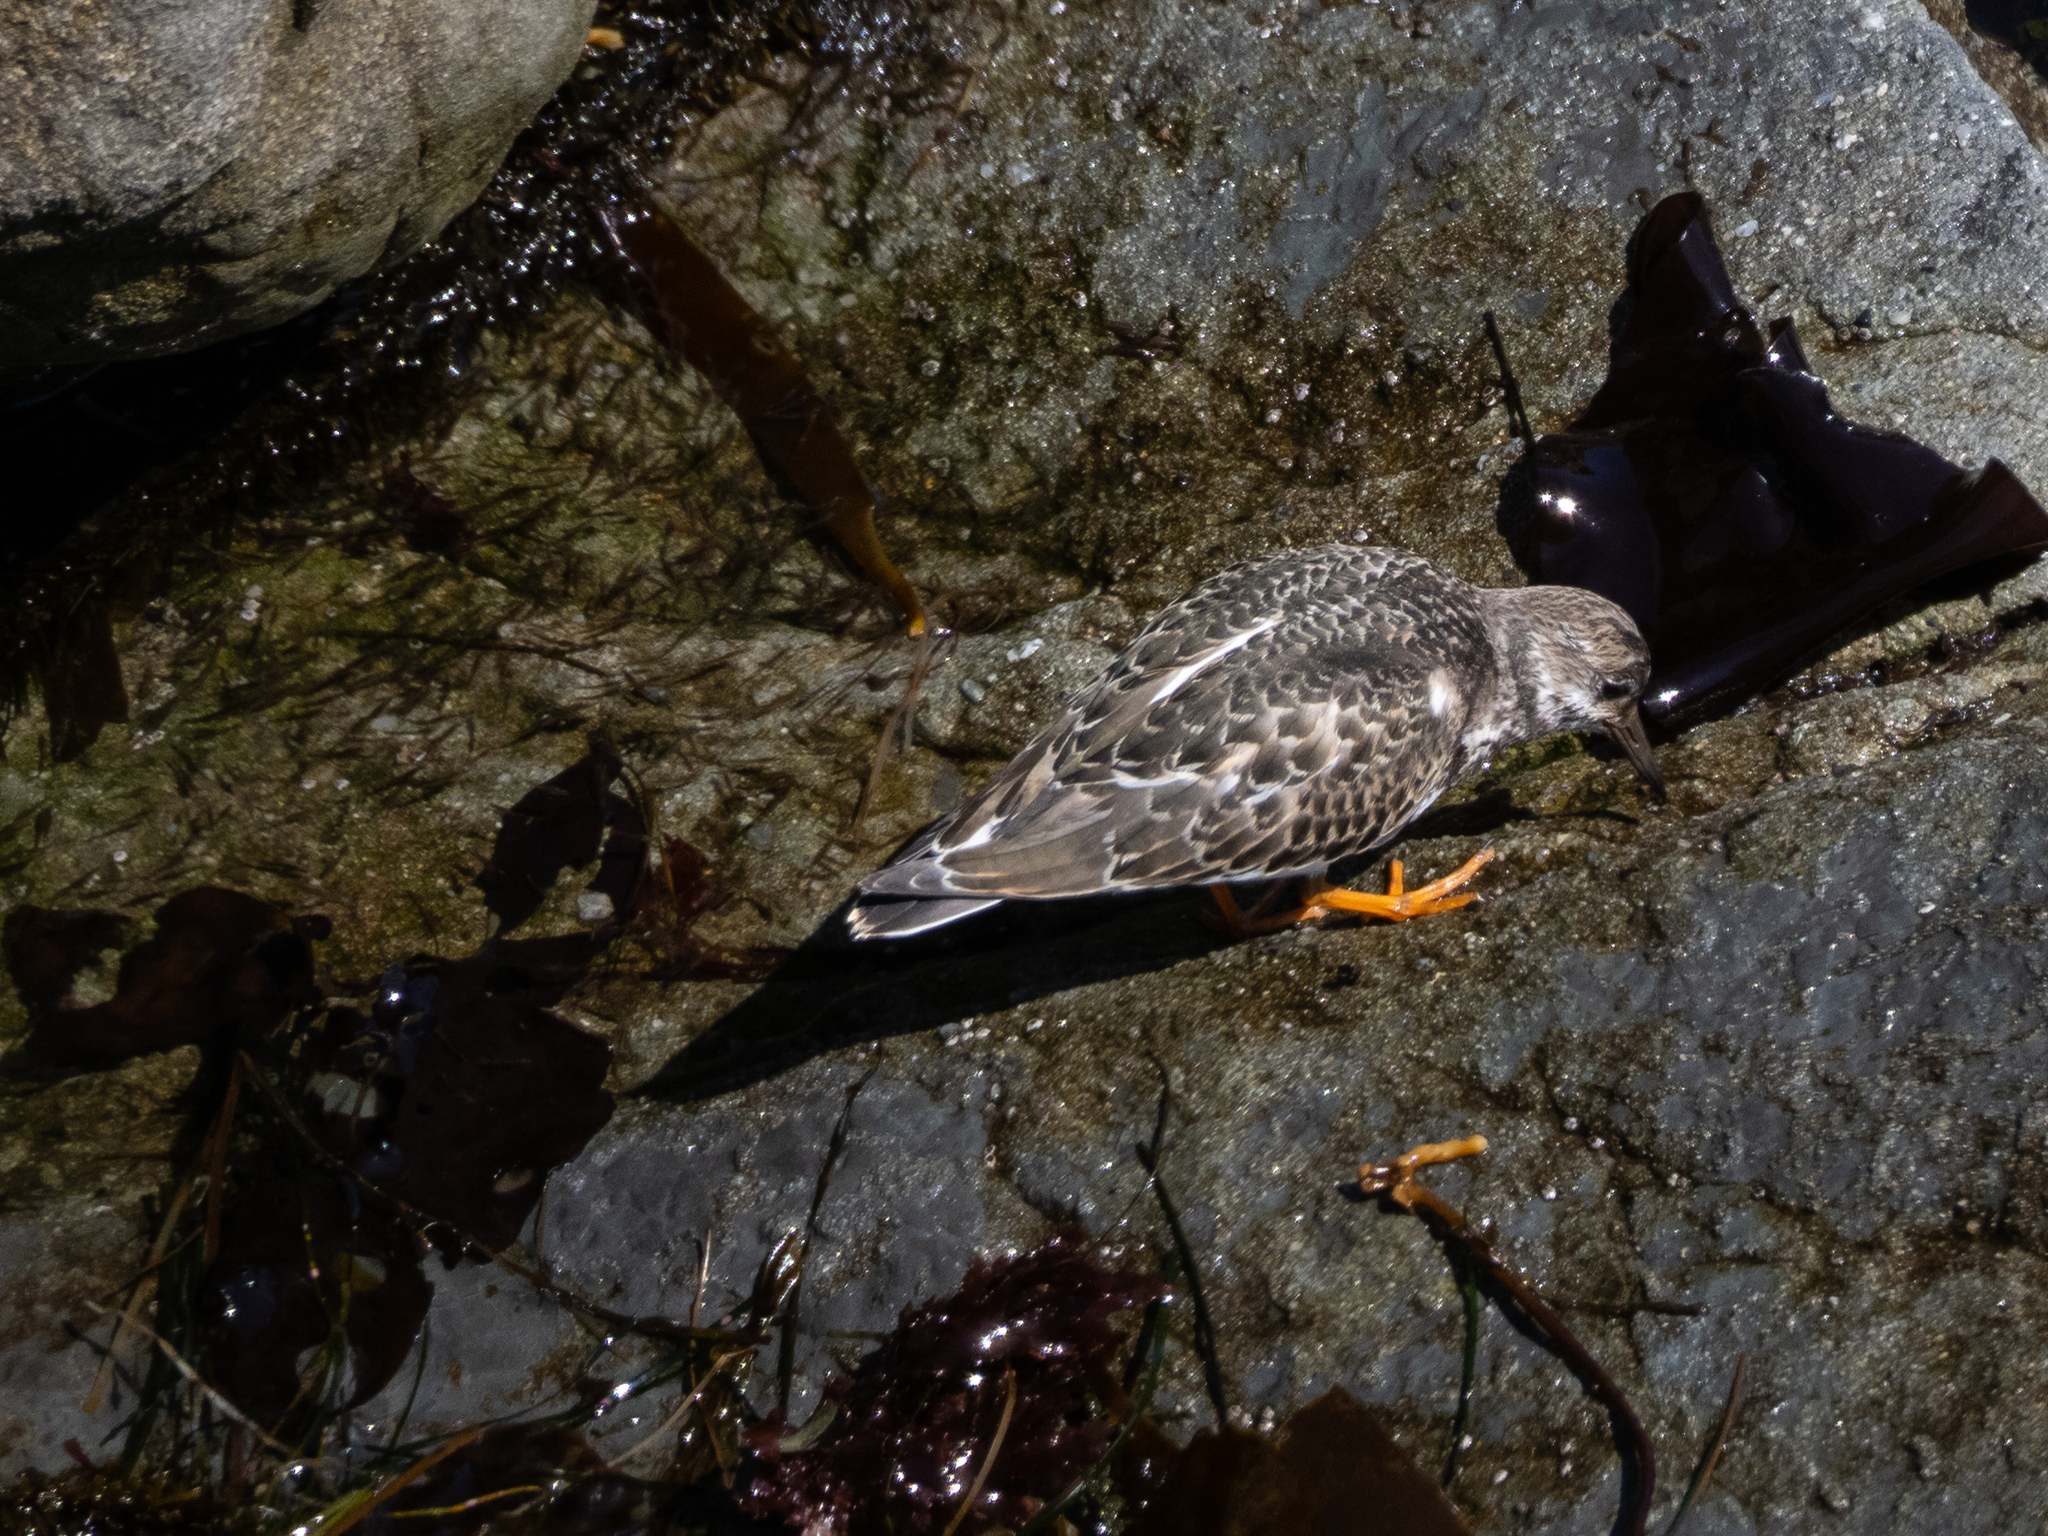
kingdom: Animalia
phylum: Chordata
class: Aves
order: Charadriiformes
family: Scolopacidae
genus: Arenaria
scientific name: Arenaria interpres
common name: Ruddy turnstone
